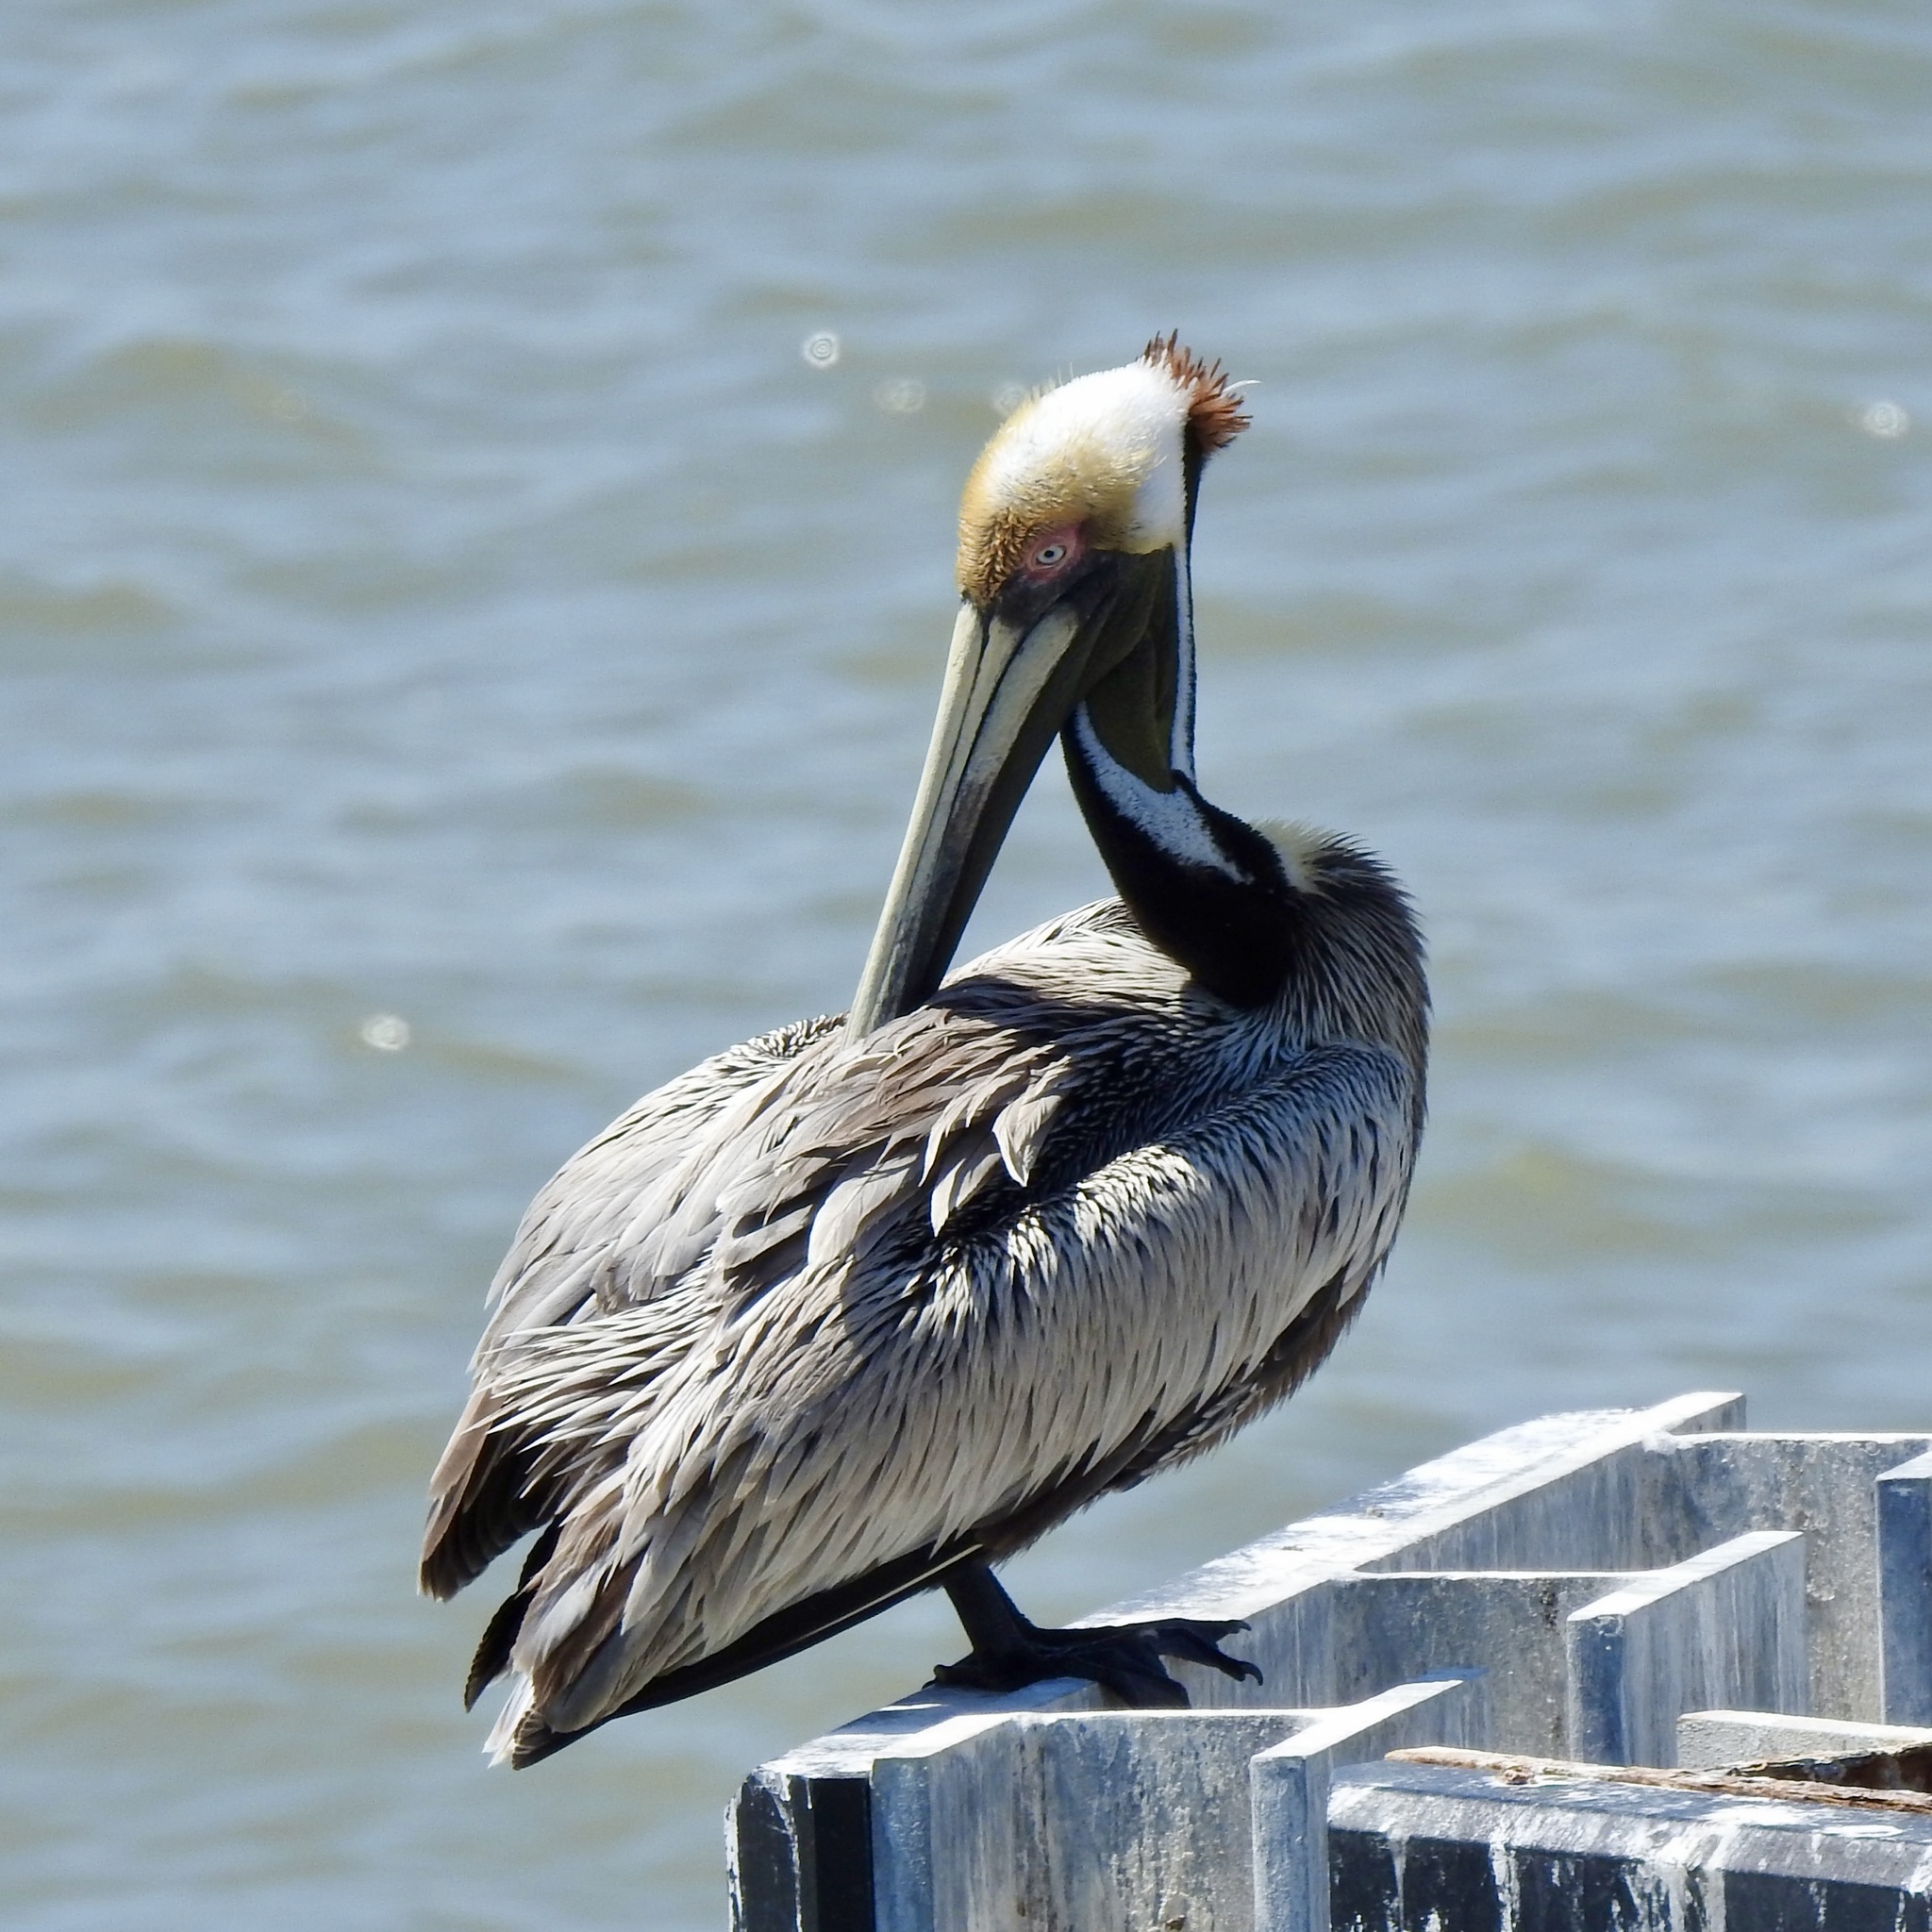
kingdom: Animalia
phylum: Chordata
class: Aves
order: Pelecaniformes
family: Pelecanidae
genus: Pelecanus
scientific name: Pelecanus occidentalis
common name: Brown pelican
